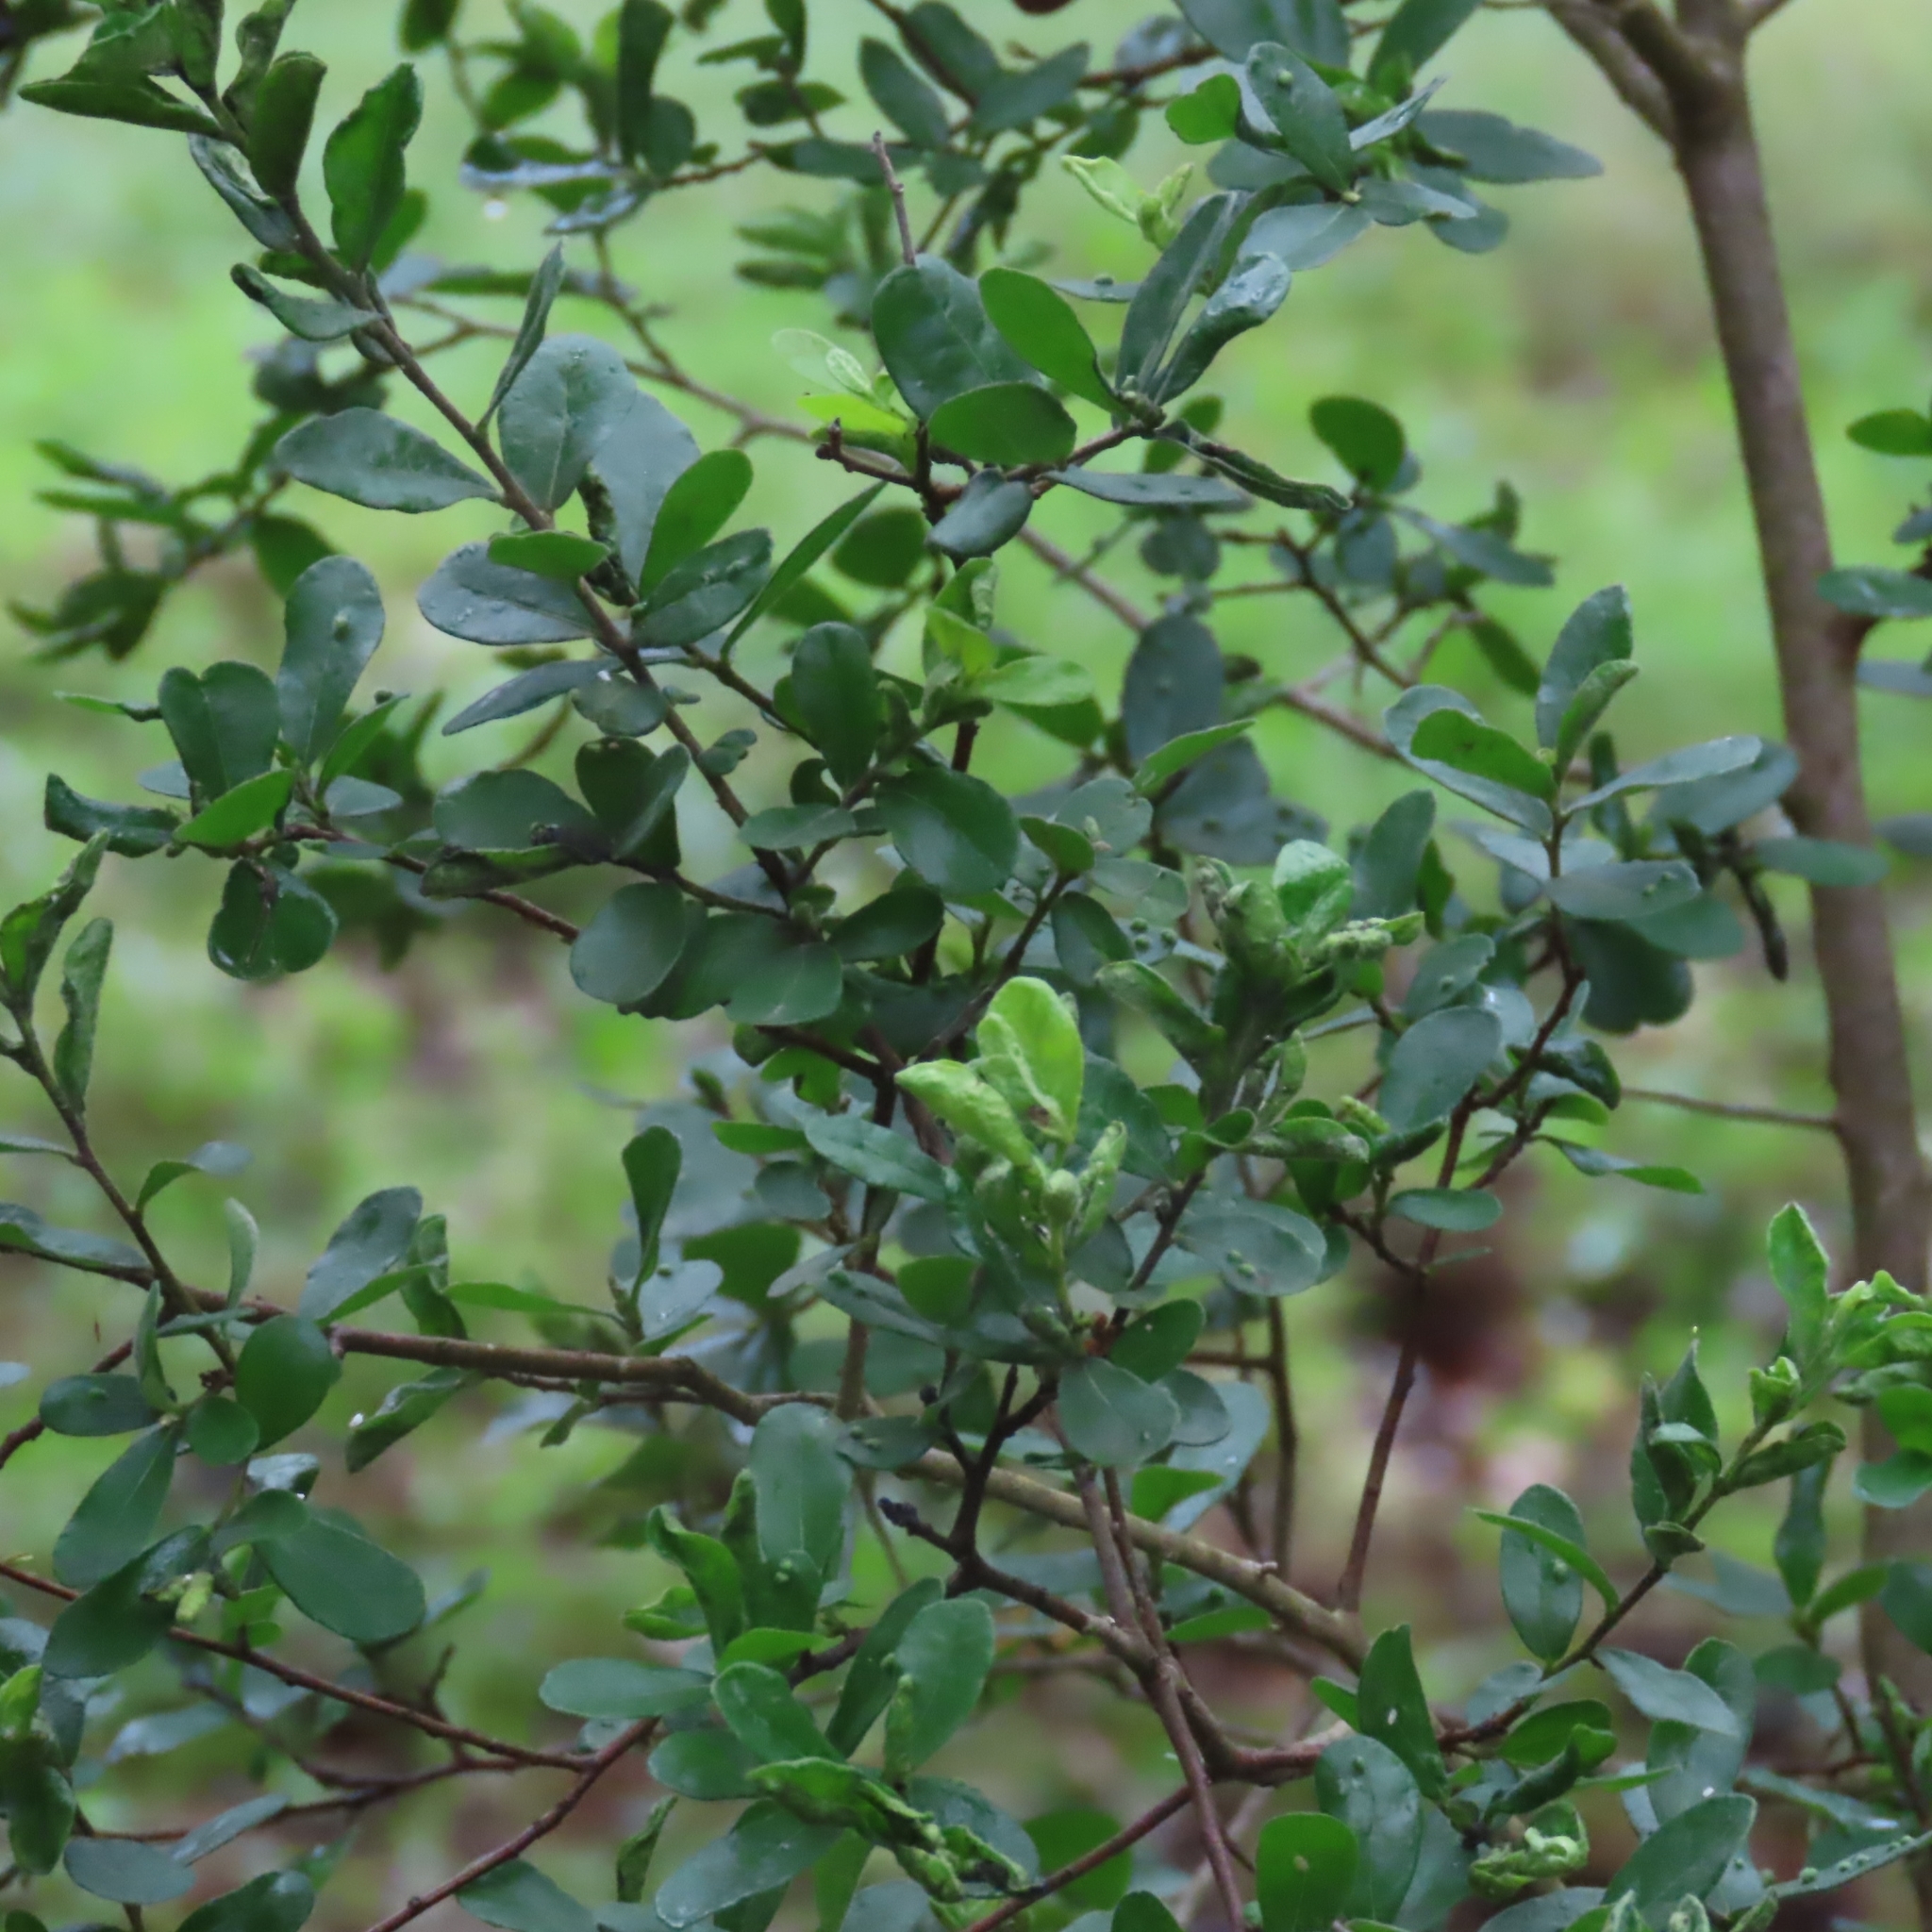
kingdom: Plantae
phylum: Tracheophyta
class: Magnoliopsida
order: Ericales
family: Ebenaceae
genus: Diospyros
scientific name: Diospyros texana
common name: Texas persimmon
